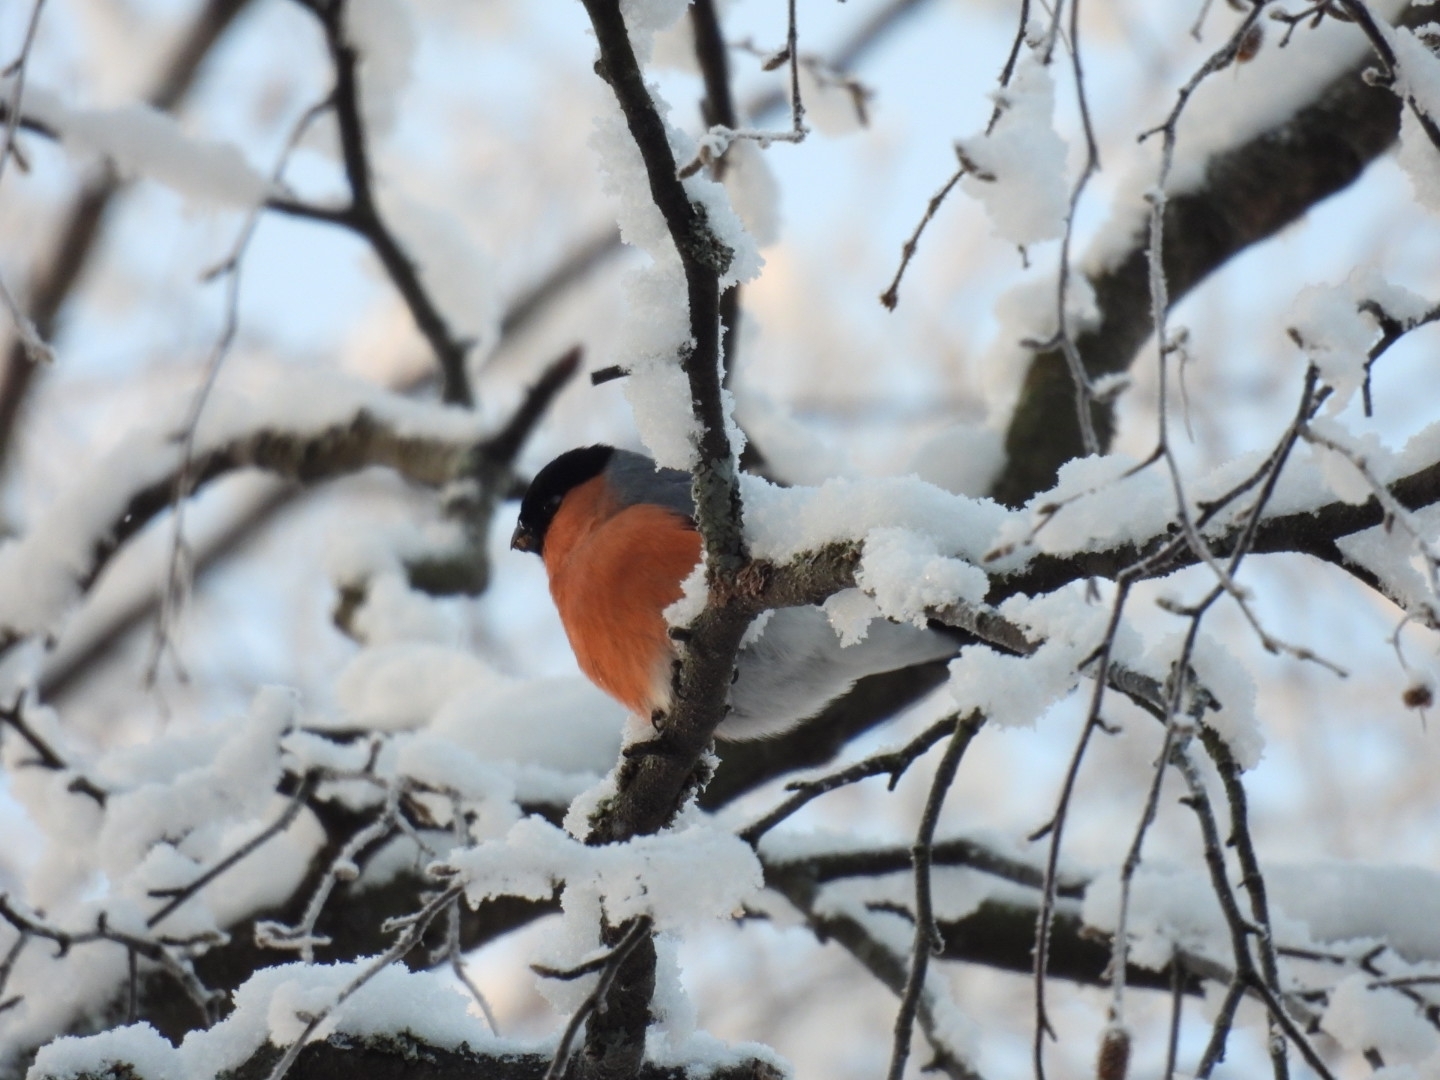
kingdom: Animalia
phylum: Chordata
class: Aves
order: Passeriformes
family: Fringillidae
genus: Pyrrhula
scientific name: Pyrrhula pyrrhula
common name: Eurasian bullfinch
